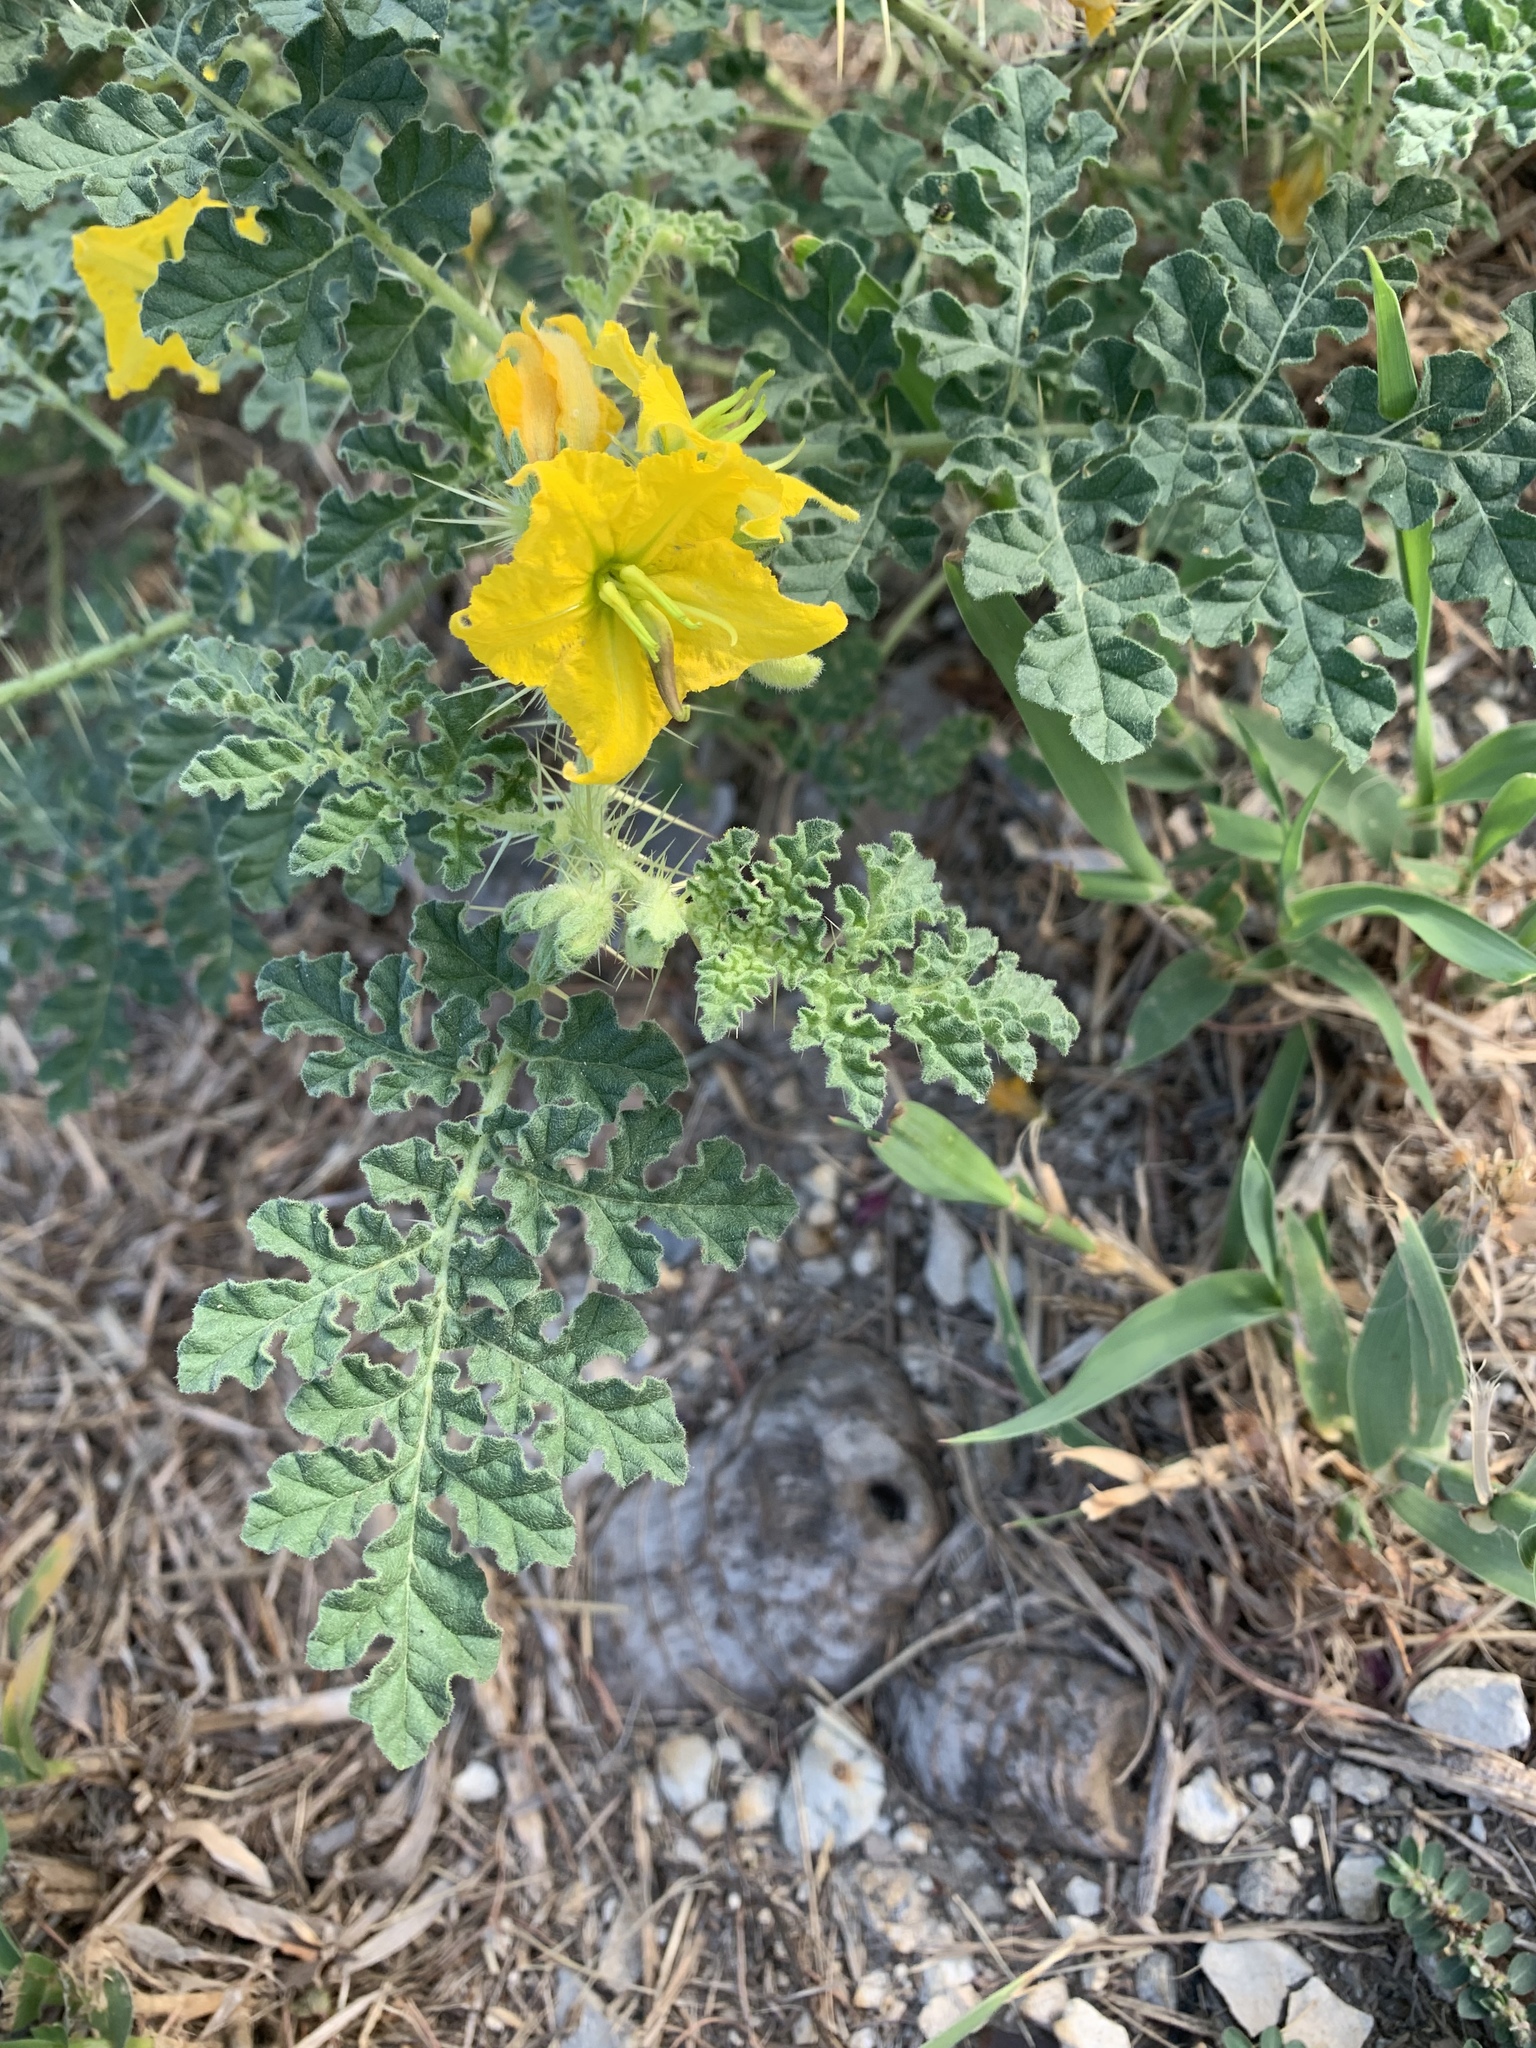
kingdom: Plantae
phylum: Tracheophyta
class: Magnoliopsida
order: Solanales
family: Solanaceae
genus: Solanum
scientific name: Solanum angustifolium
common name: Buffalobur nightshade
